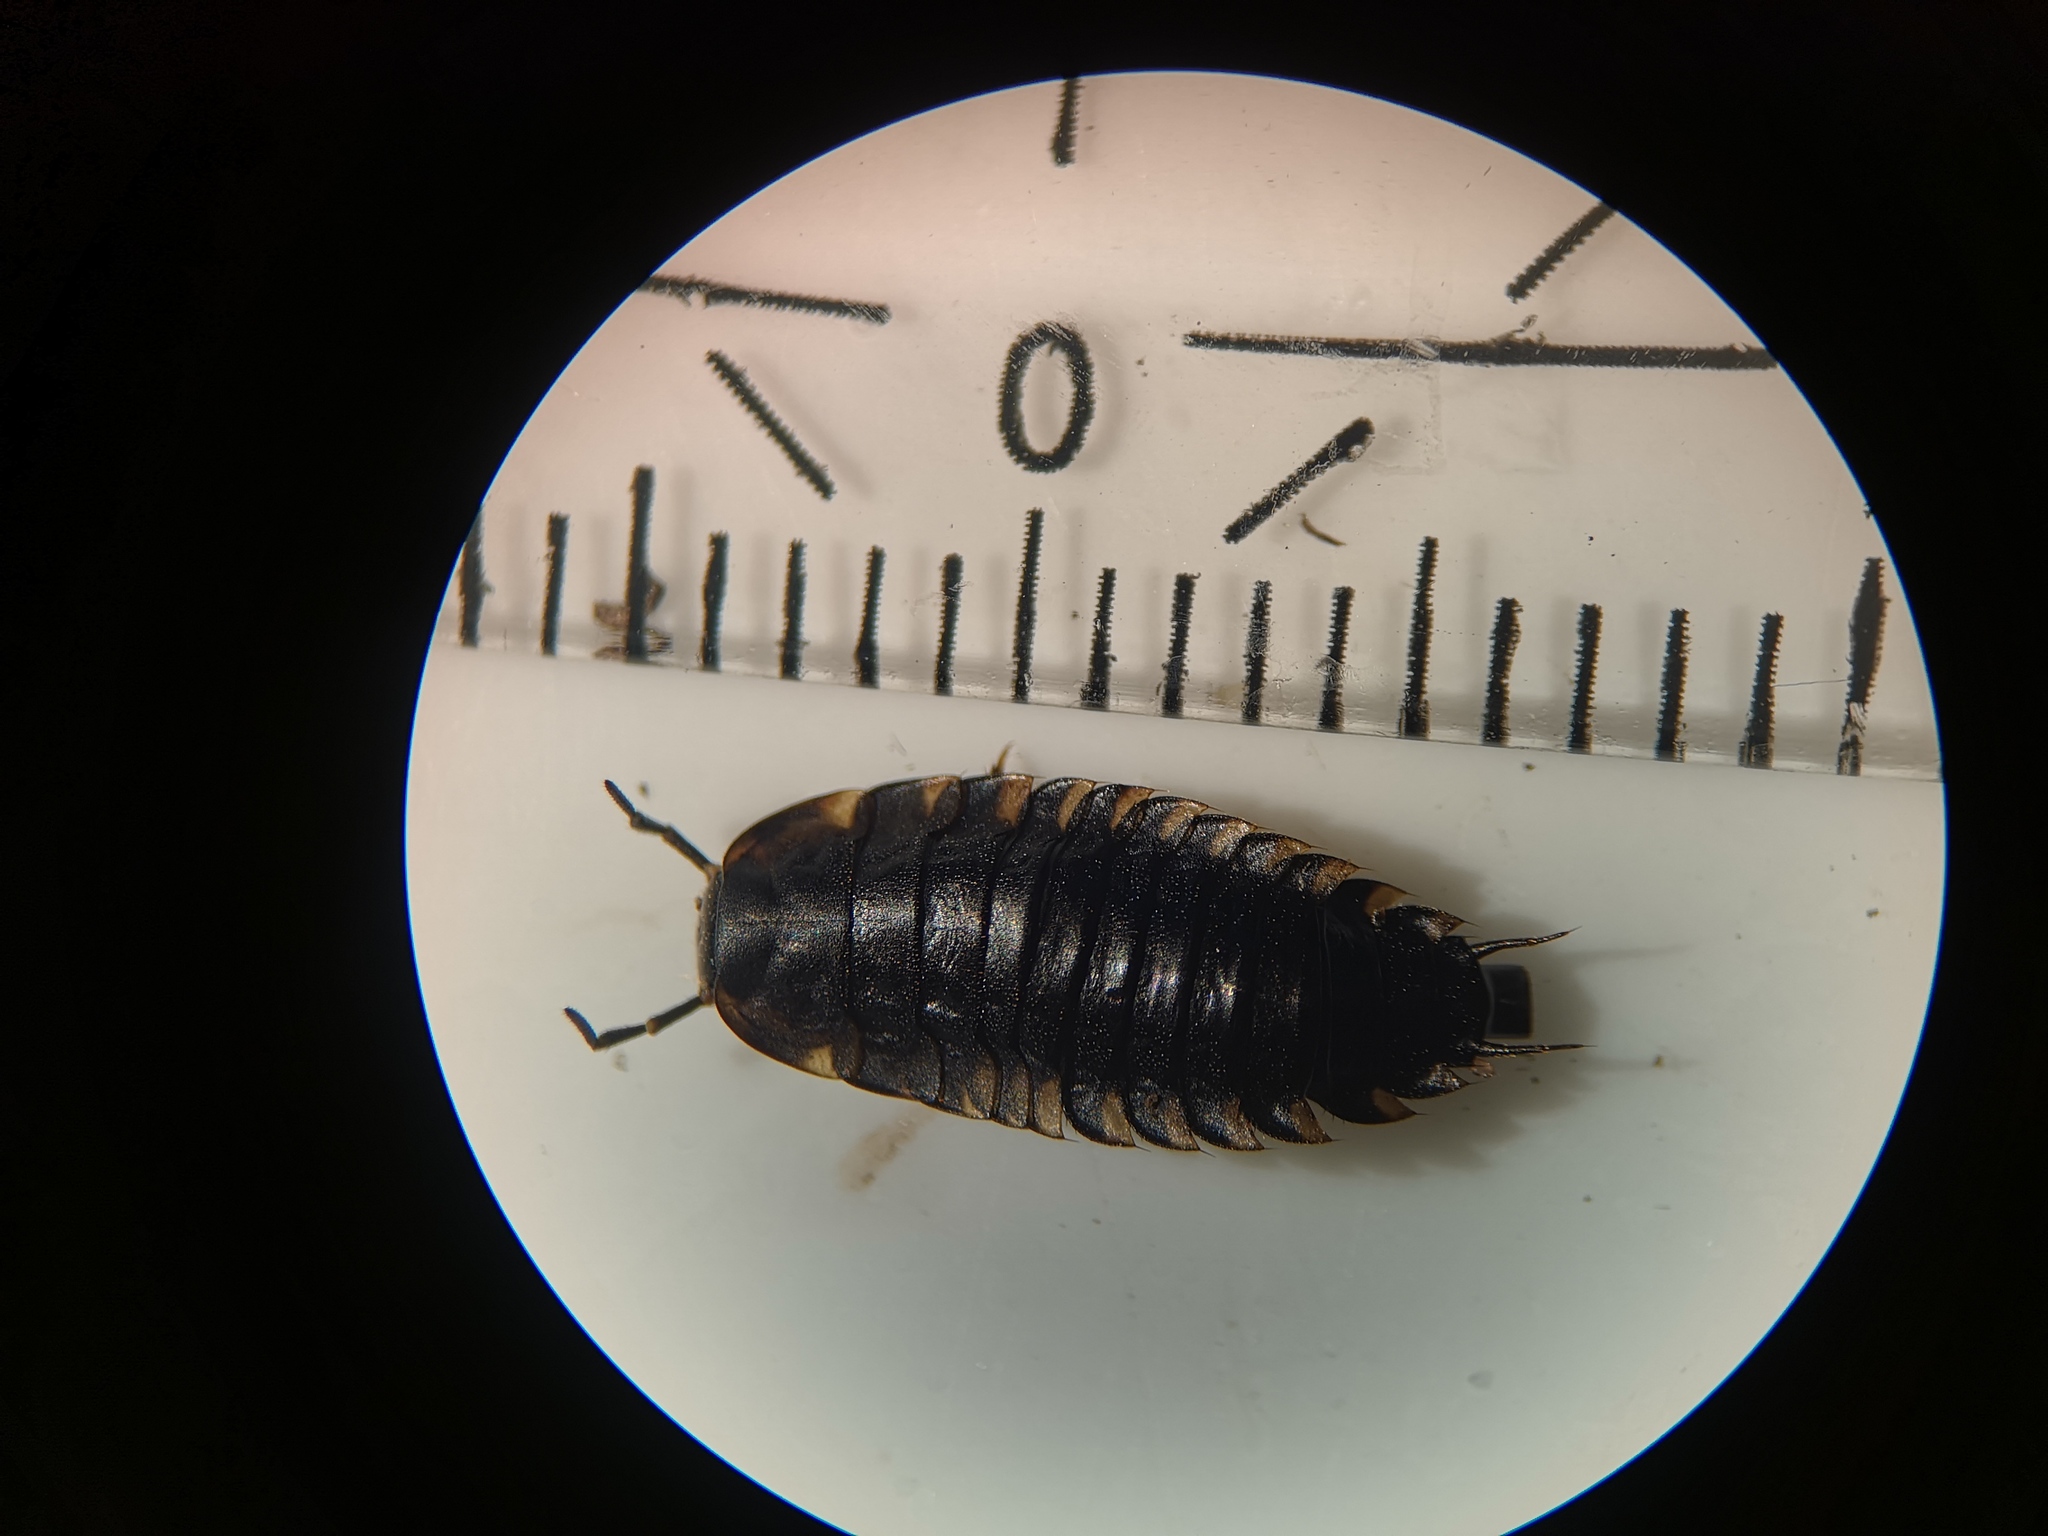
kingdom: Animalia
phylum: Arthropoda
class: Insecta
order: Coleoptera
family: Staphylinidae
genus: Silpha
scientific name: Silpha tristis
